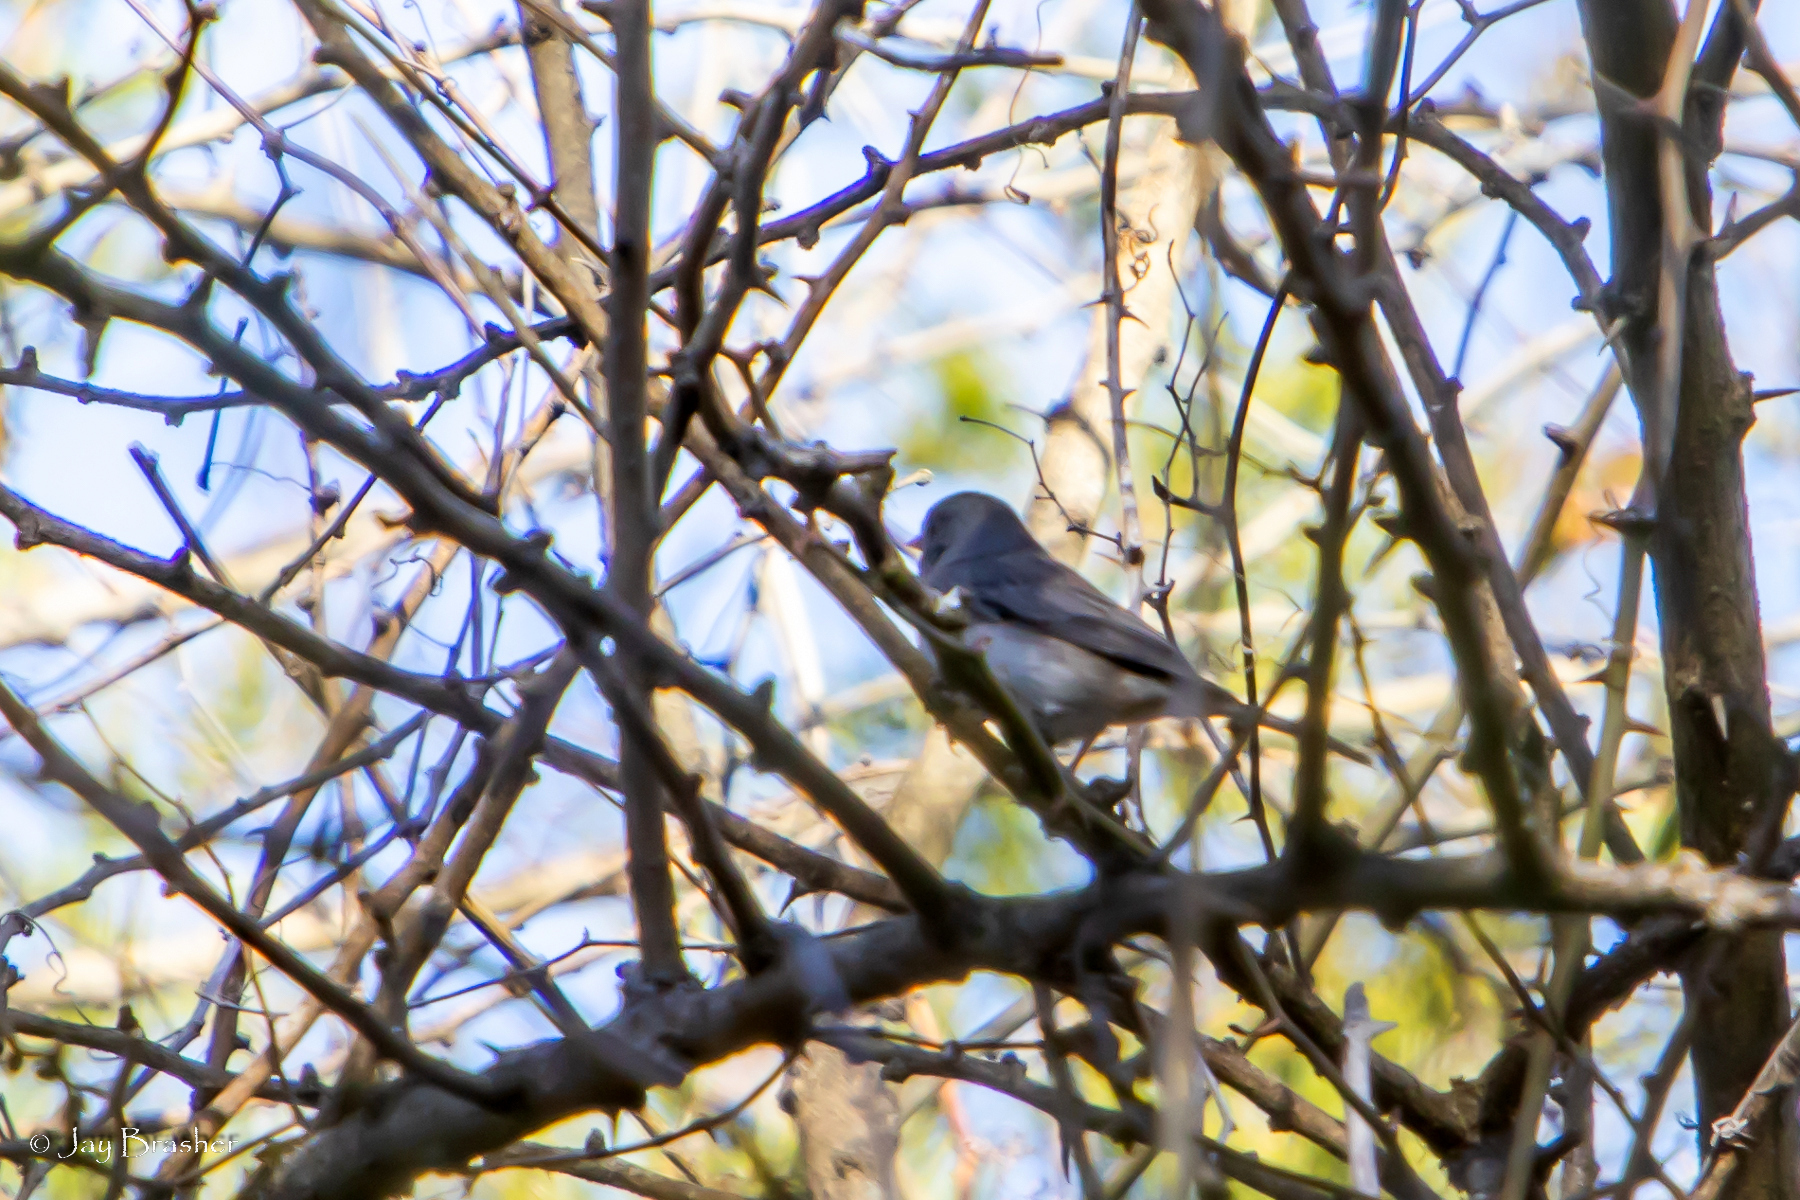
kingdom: Animalia
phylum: Chordata
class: Aves
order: Passeriformes
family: Passerellidae
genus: Junco
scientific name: Junco hyemalis
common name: Dark-eyed junco
